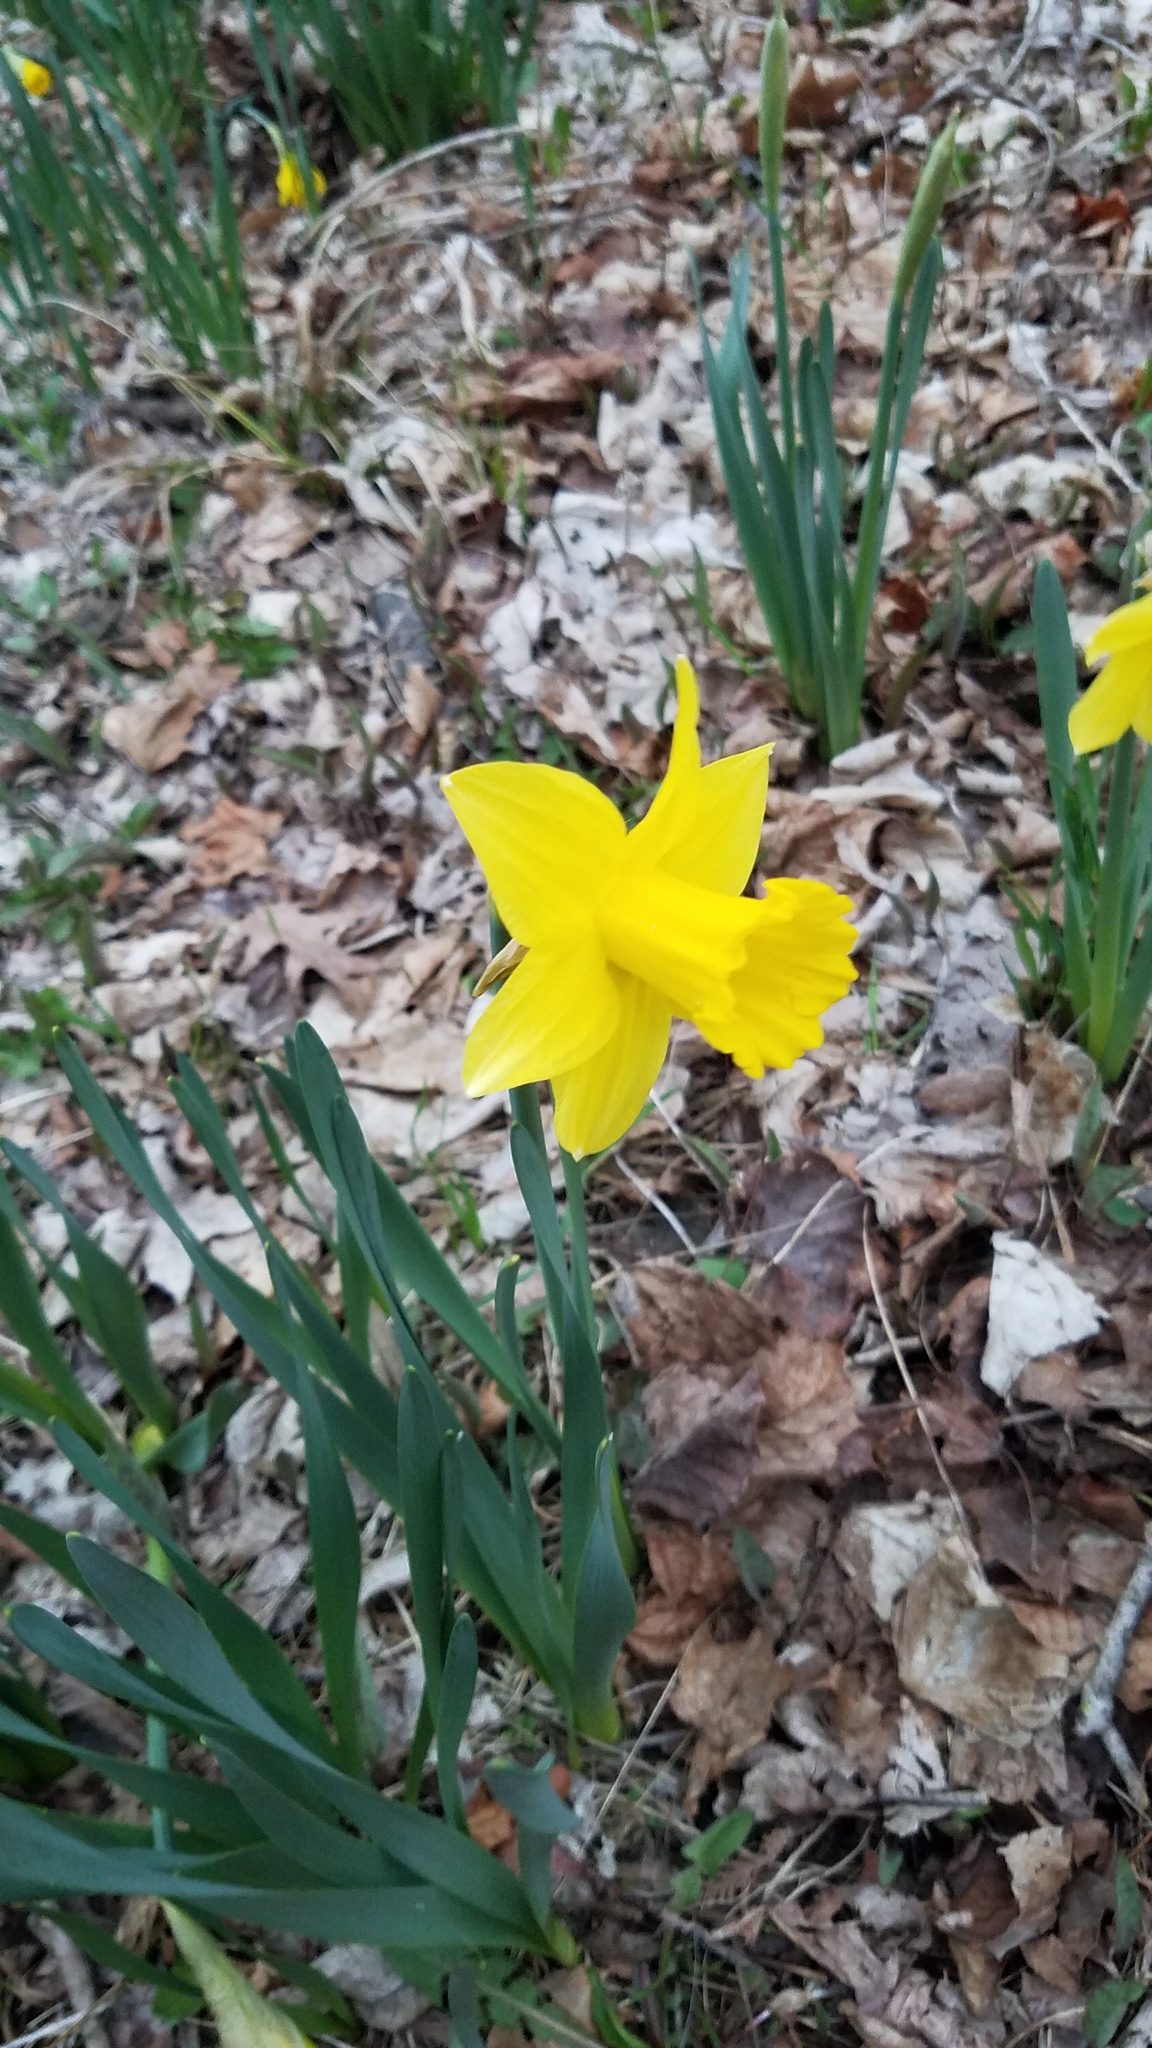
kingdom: Plantae
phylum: Tracheophyta
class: Liliopsida
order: Asparagales
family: Amaryllidaceae
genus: Narcissus
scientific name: Narcissus
